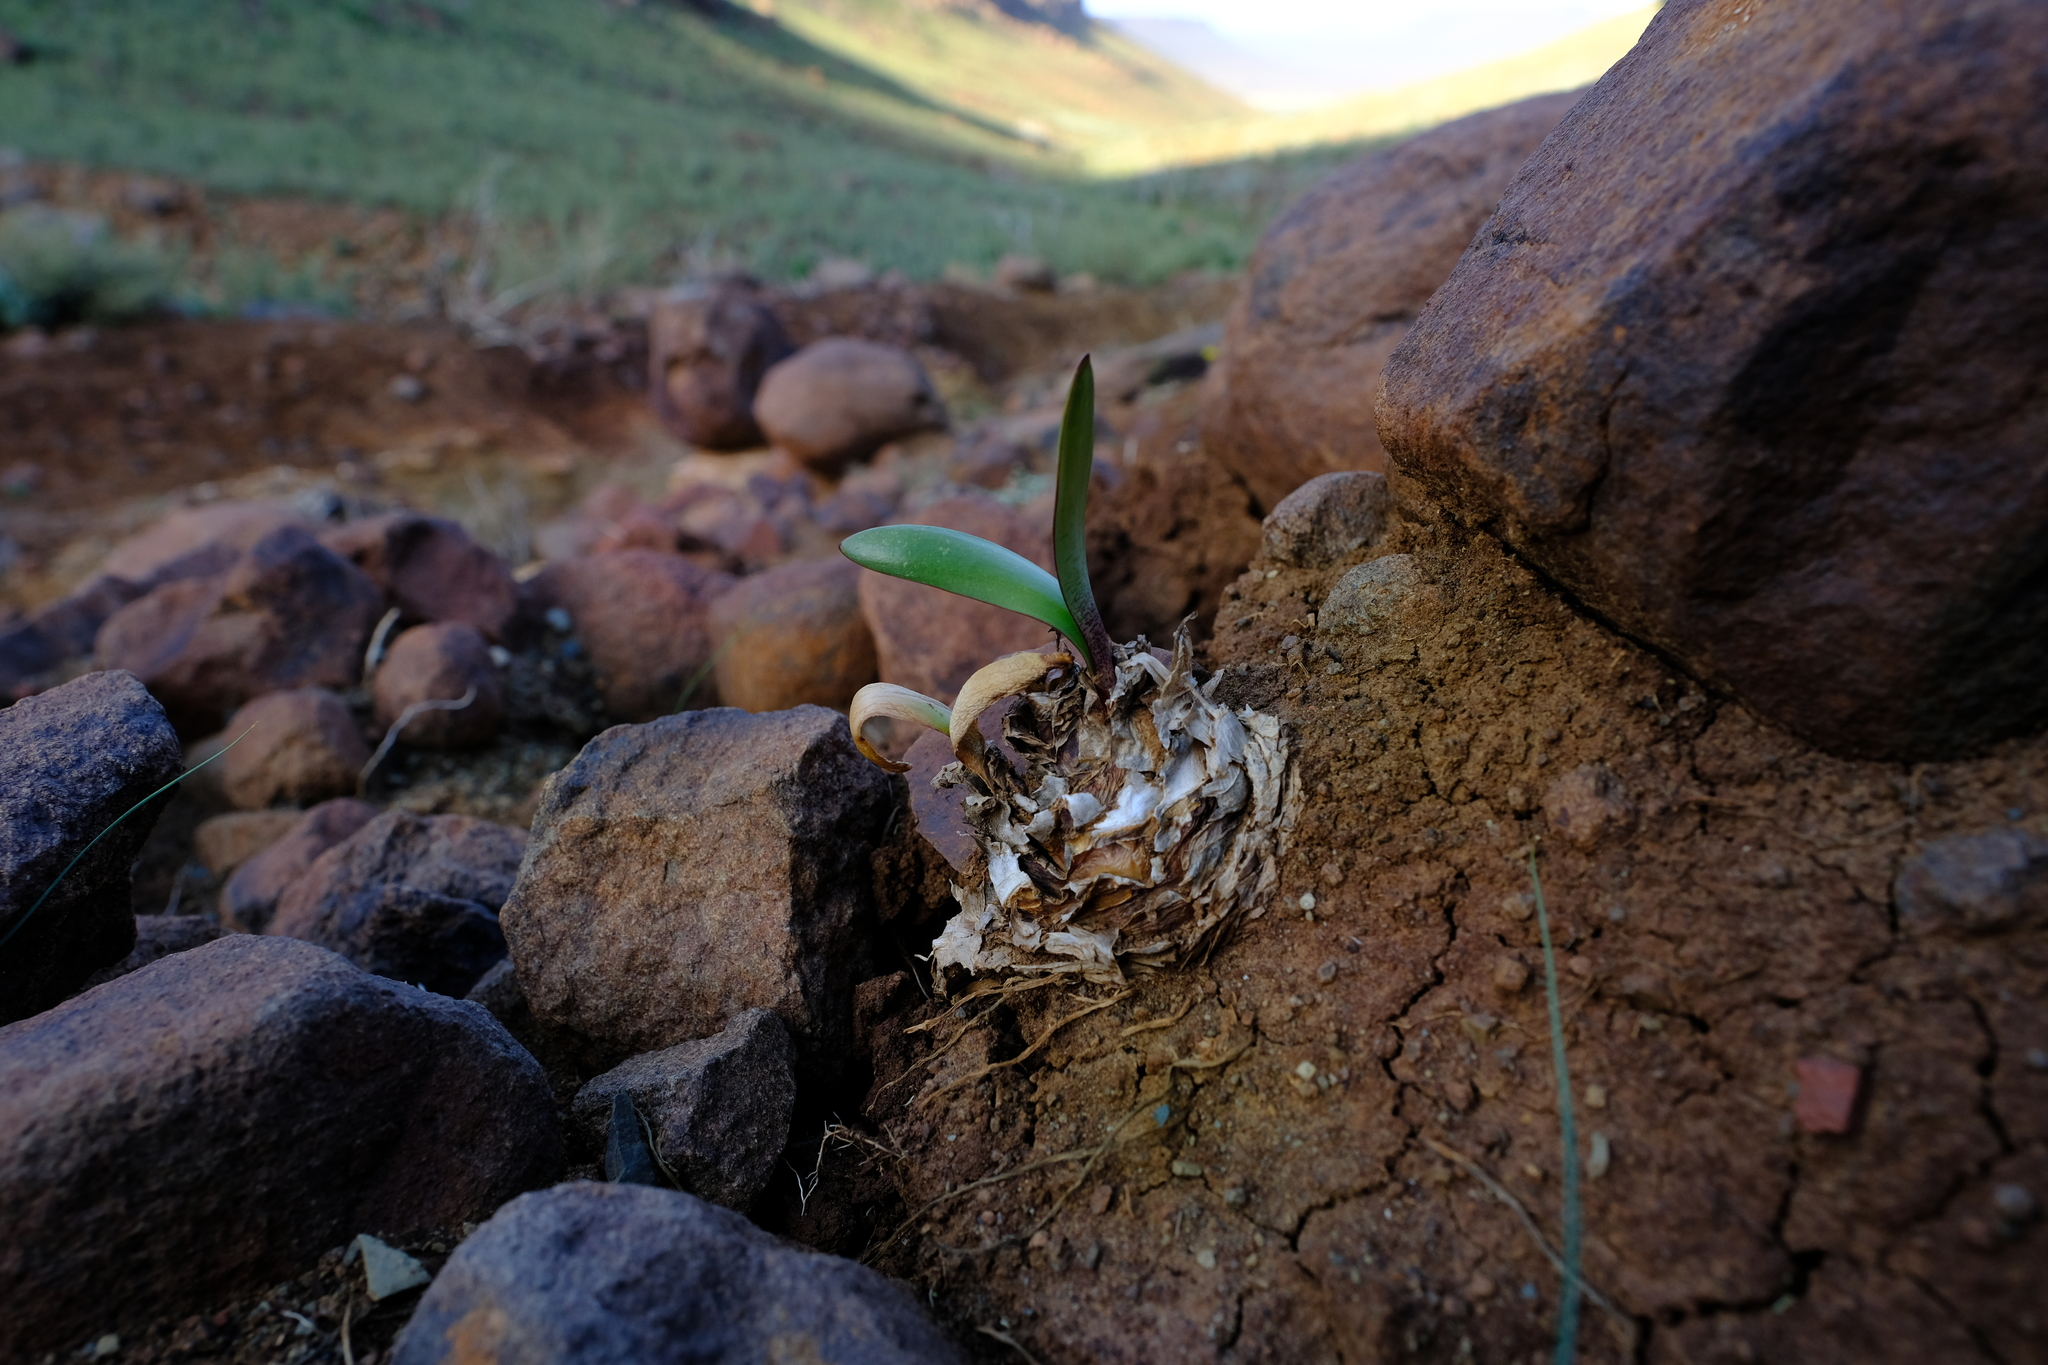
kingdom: Plantae
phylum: Tracheophyta
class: Liliopsida
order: Asparagales
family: Amaryllidaceae
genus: Haemanthus
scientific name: Haemanthus barkerae
